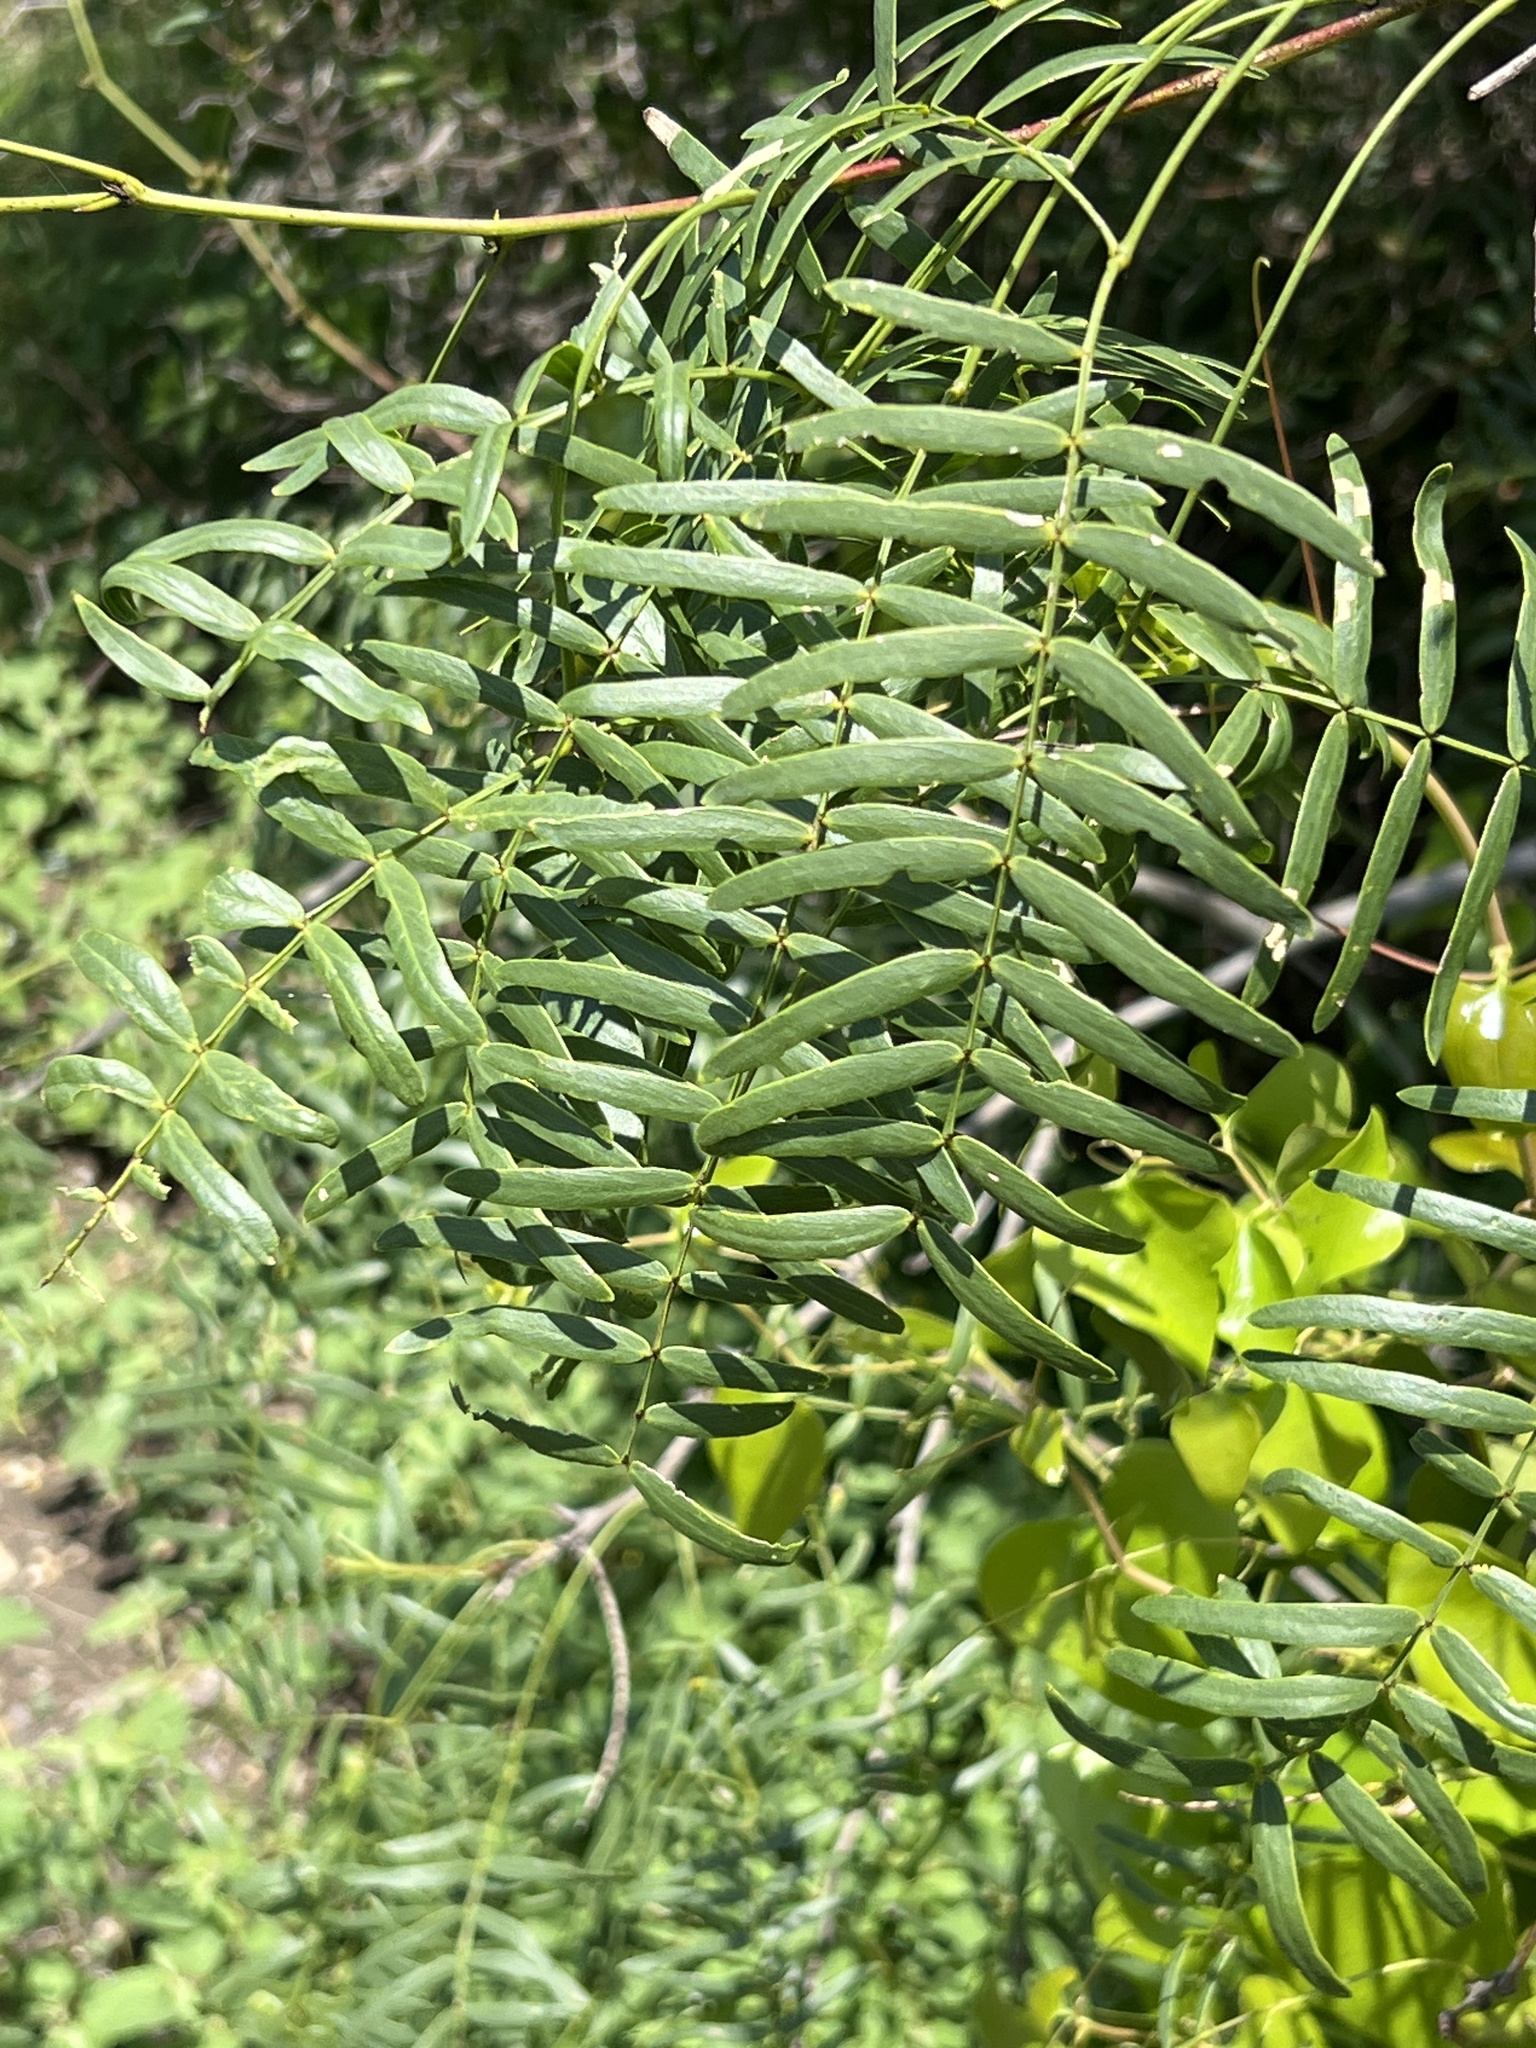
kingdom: Plantae
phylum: Tracheophyta
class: Magnoliopsida
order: Fabales
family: Fabaceae
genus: Prosopis
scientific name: Prosopis glandulosa
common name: Honey mesquite
